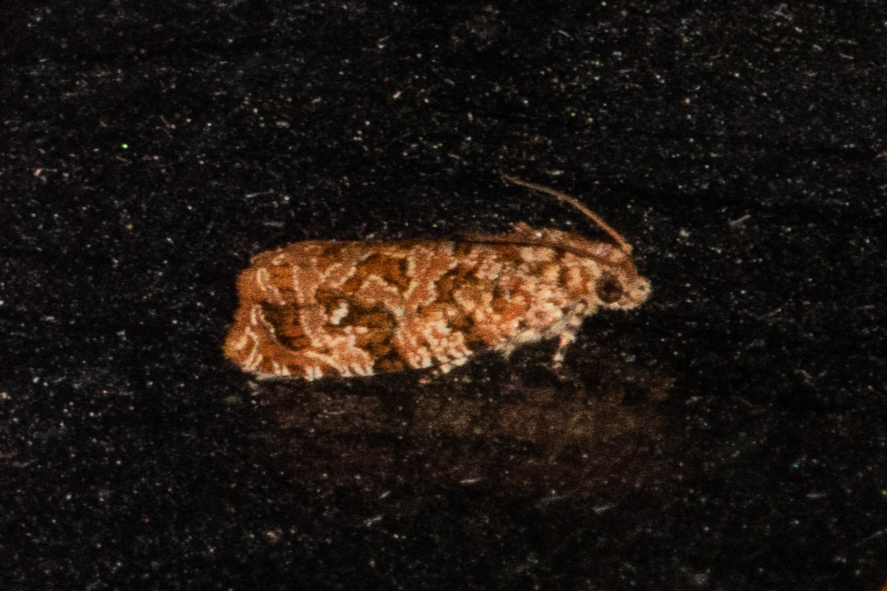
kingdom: Animalia
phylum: Arthropoda
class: Insecta
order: Lepidoptera
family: Tortricidae
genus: Phaecasiophora
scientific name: Phaecasiophora niveiguttana
